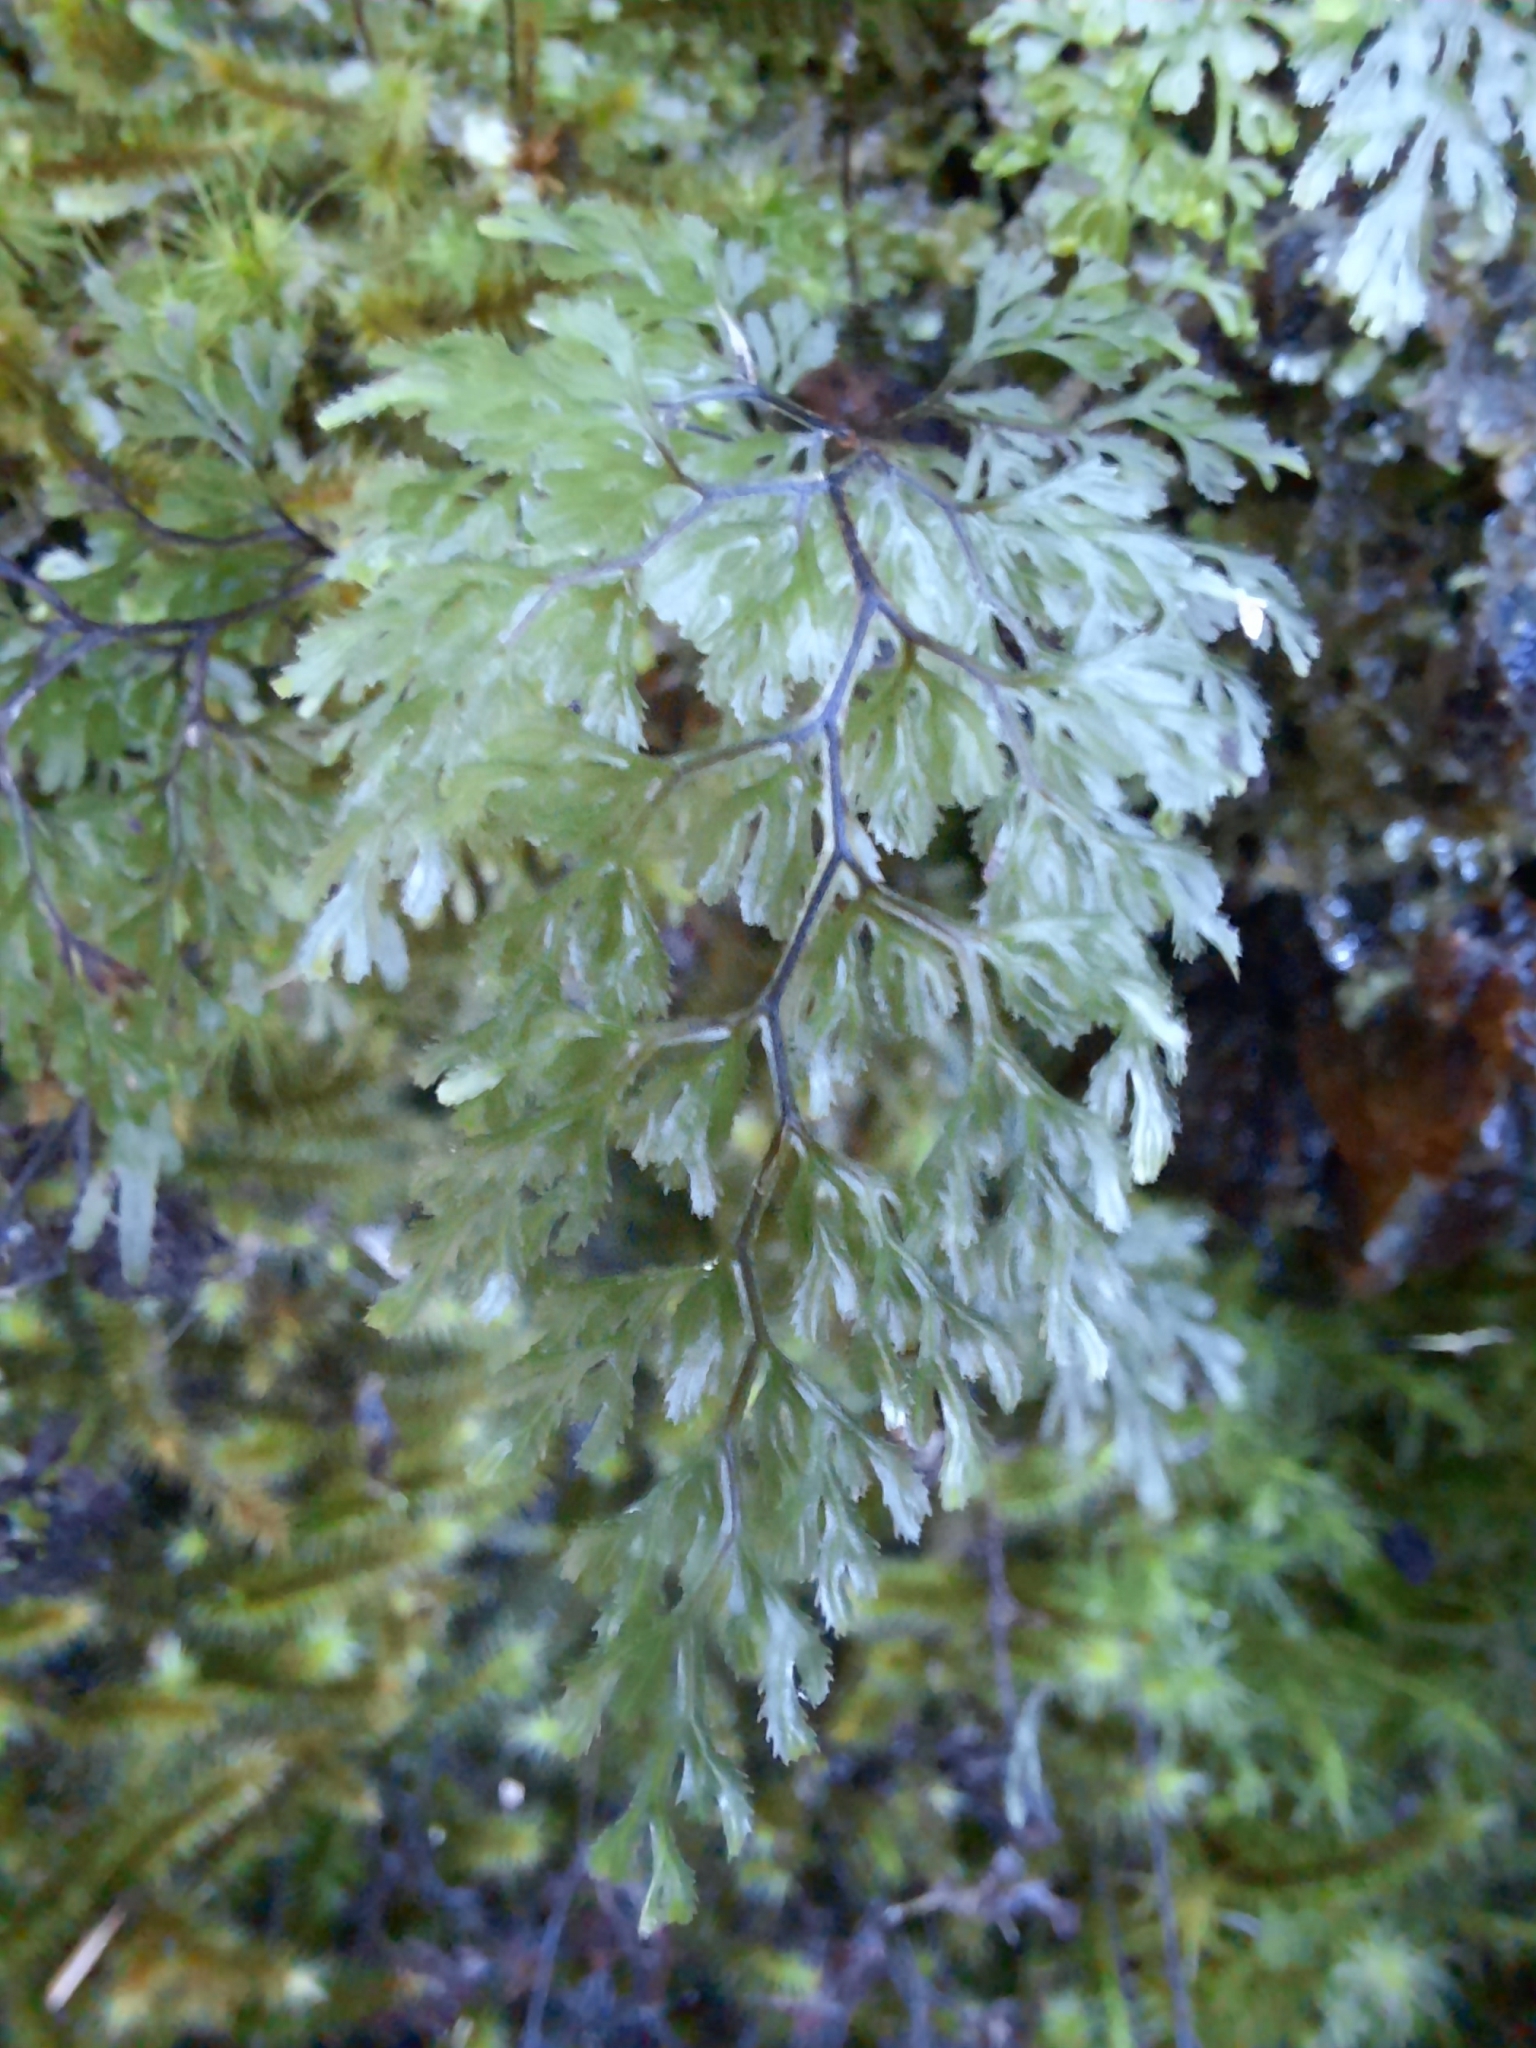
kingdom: Plantae
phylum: Tracheophyta
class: Polypodiopsida
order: Hymenophyllales
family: Hymenophyllaceae
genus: Hymenophyllum
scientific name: Hymenophyllum multifidum
